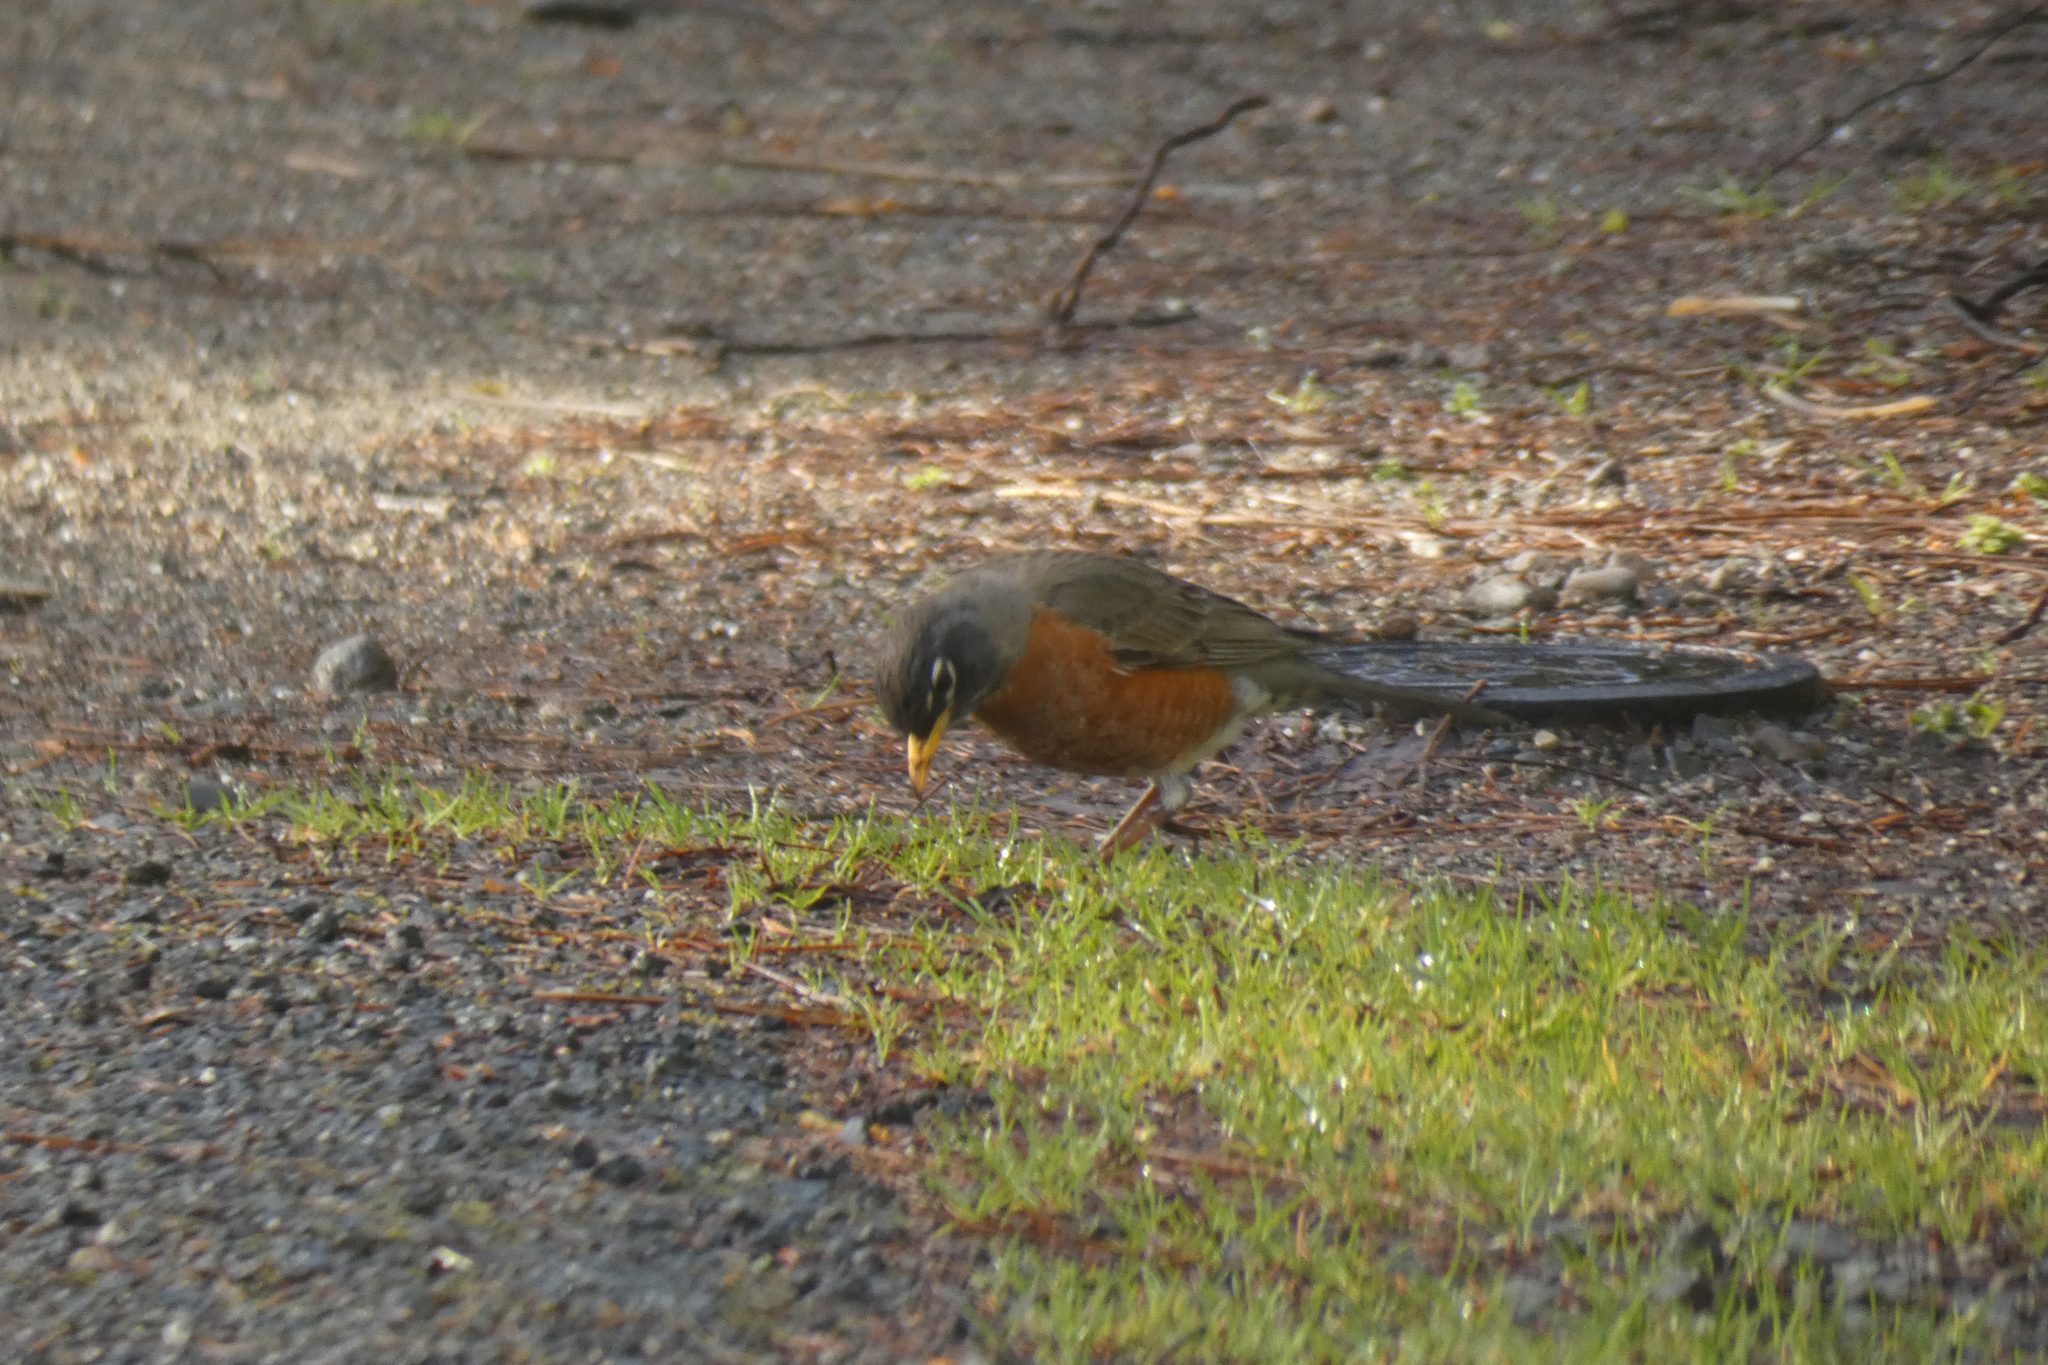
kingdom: Animalia
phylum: Chordata
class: Aves
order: Passeriformes
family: Turdidae
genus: Turdus
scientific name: Turdus migratorius
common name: American robin
